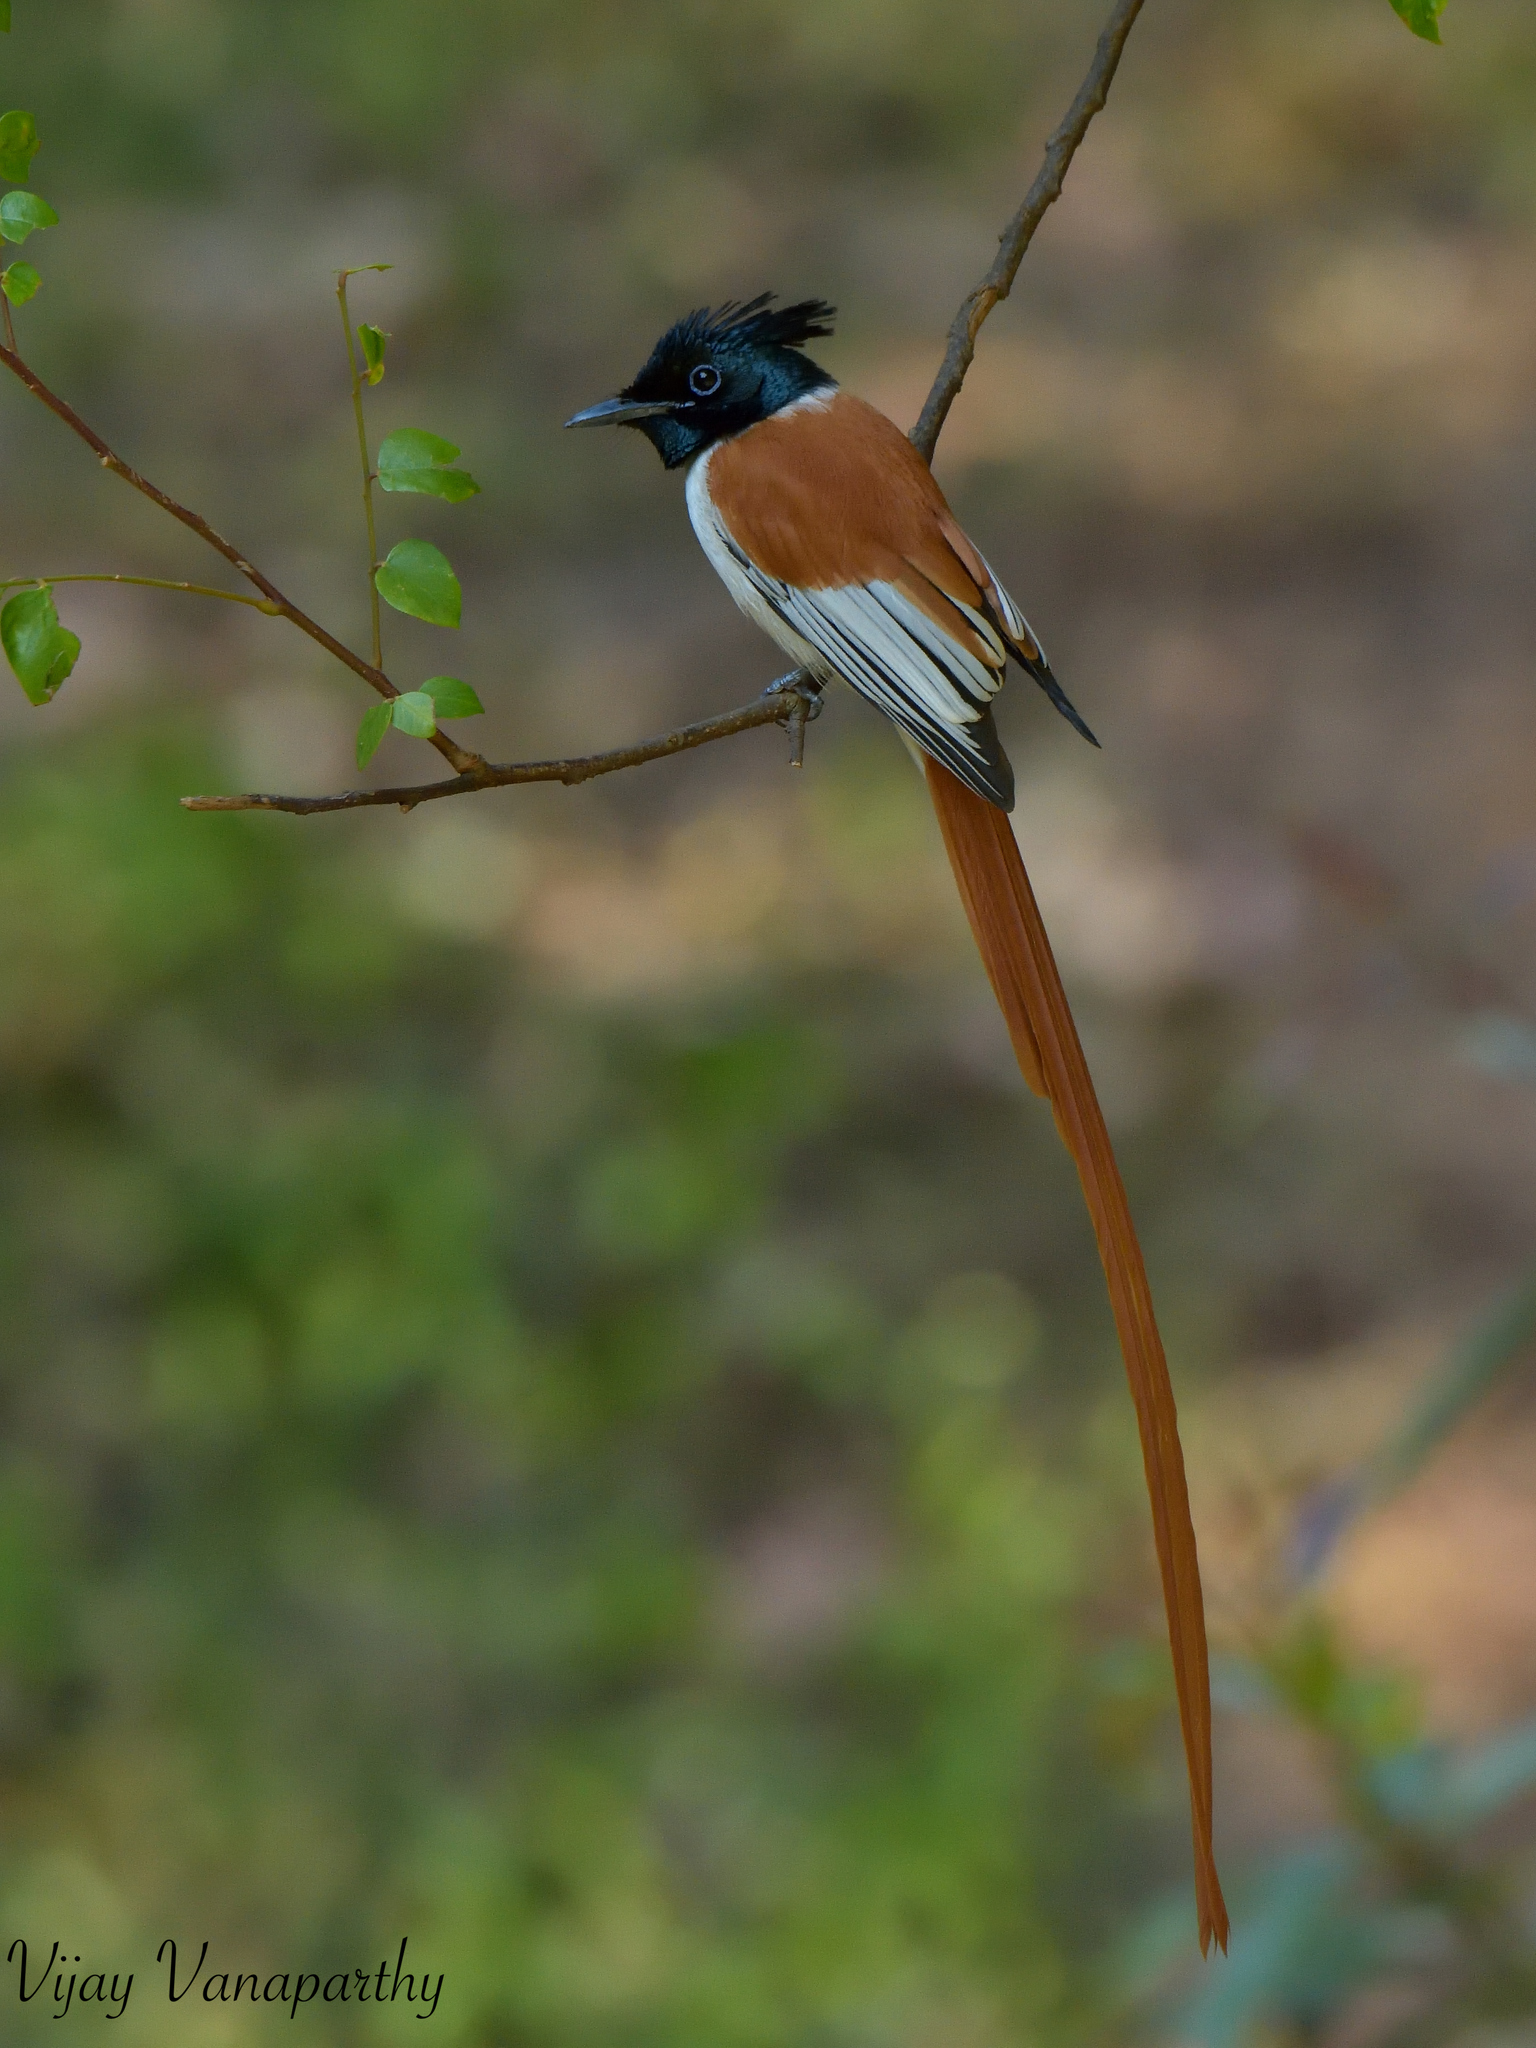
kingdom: Animalia
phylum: Chordata
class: Aves
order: Passeriformes
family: Monarchidae
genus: Terpsiphone
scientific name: Terpsiphone paradisi
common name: Indian paradise flycatcher
